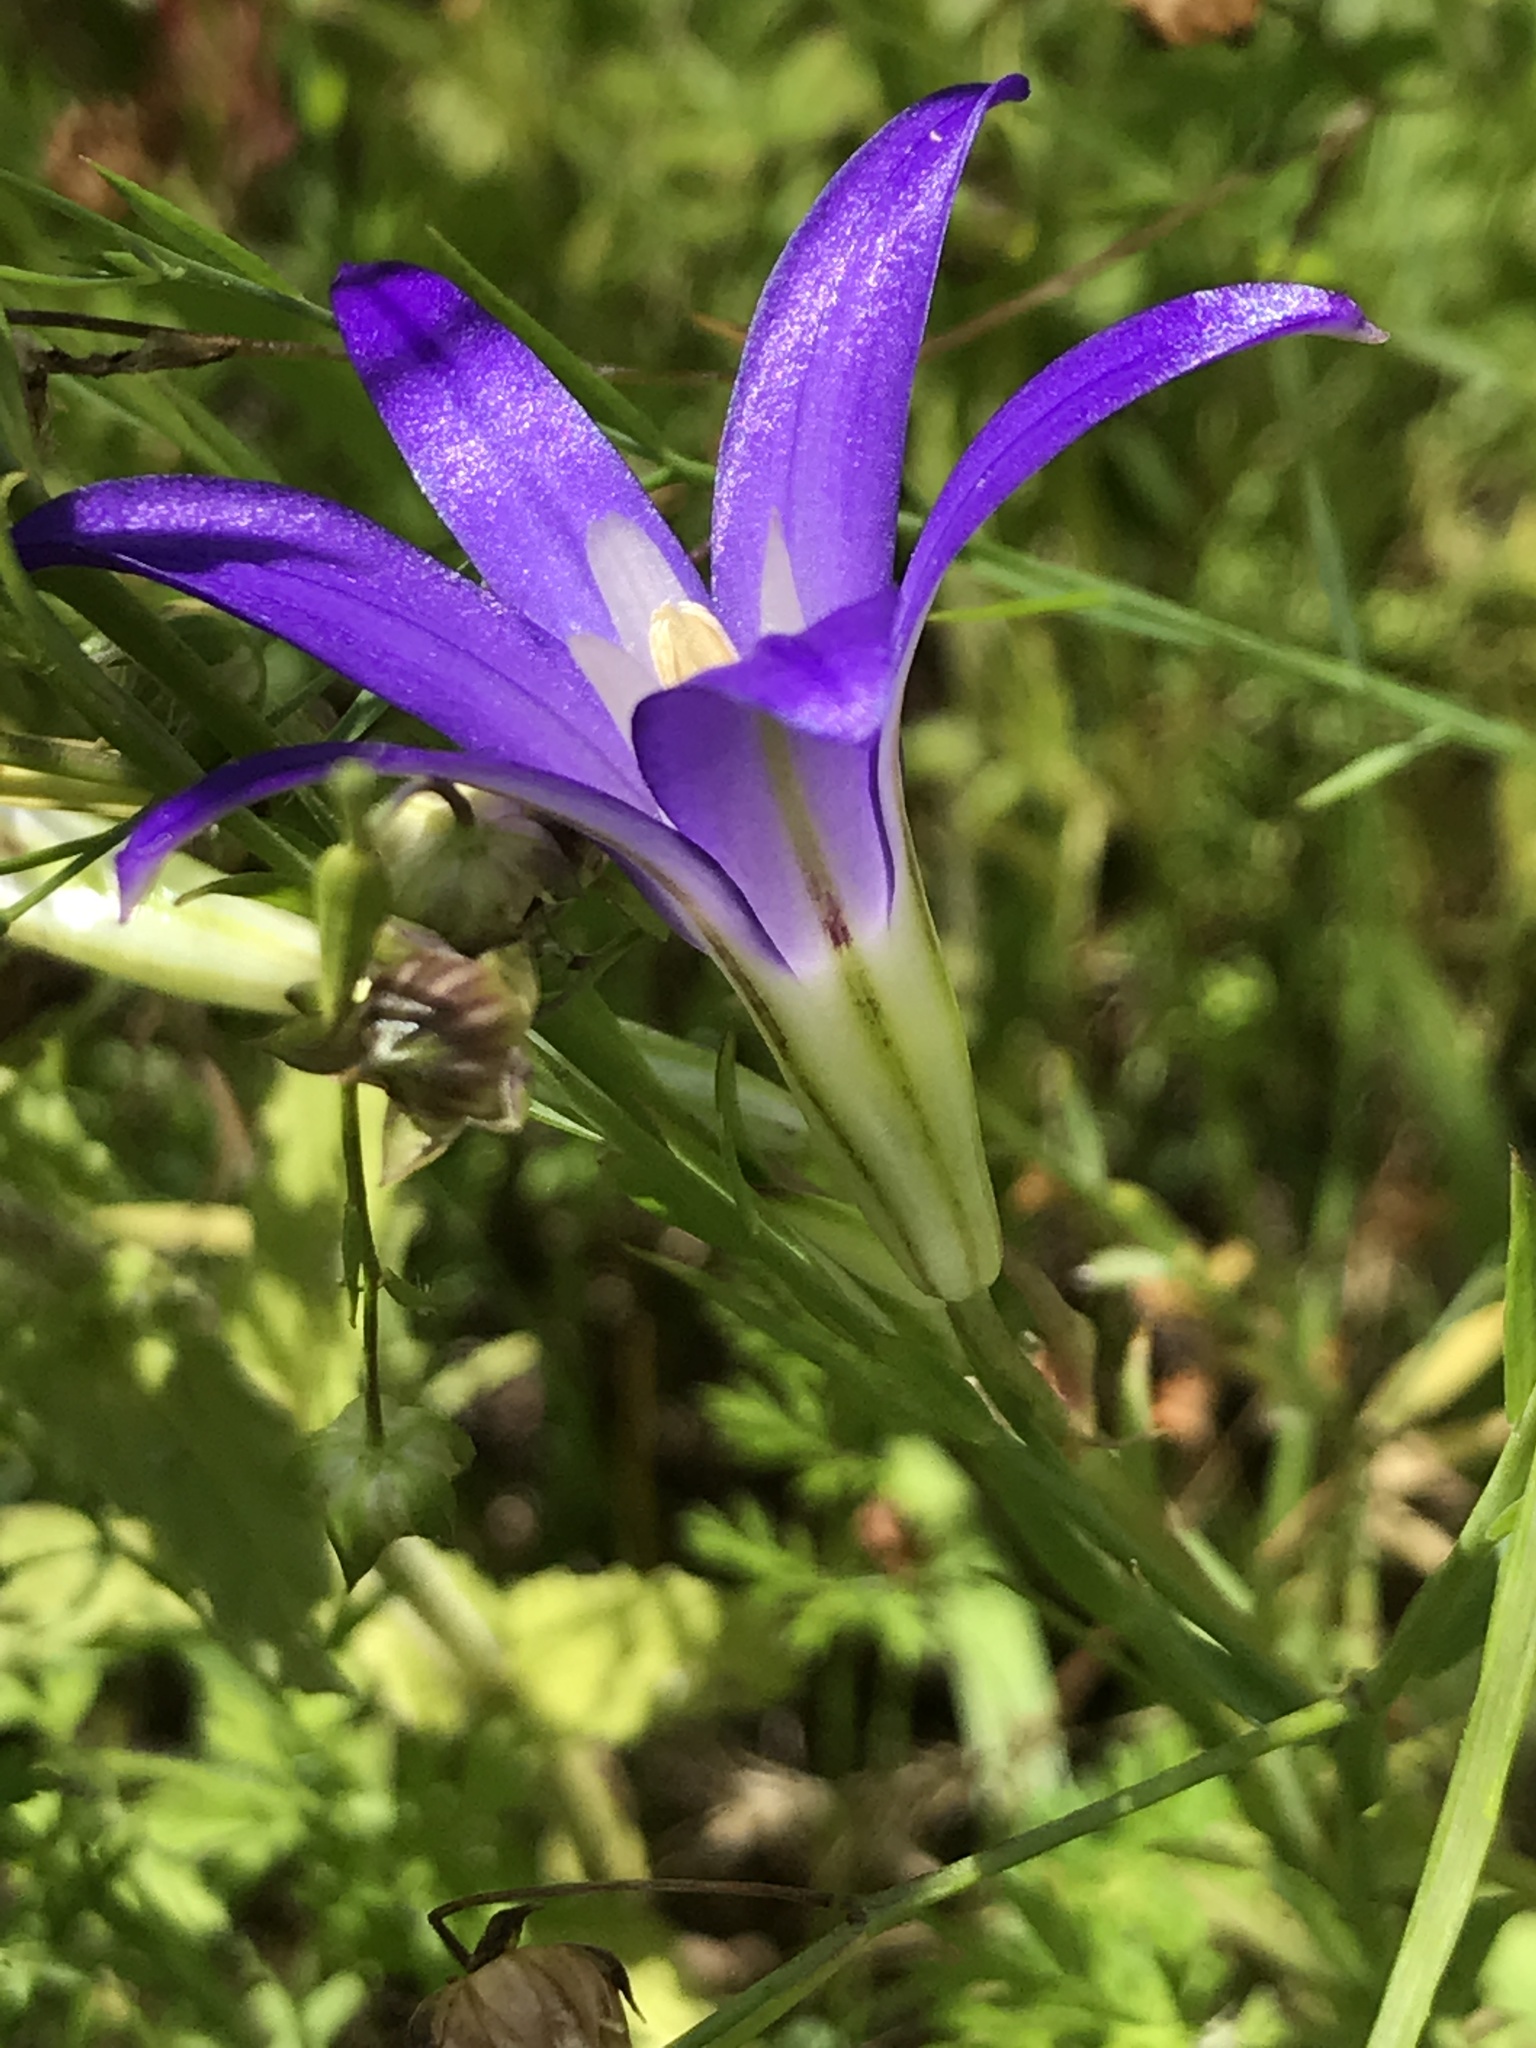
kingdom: Plantae
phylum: Tracheophyta
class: Liliopsida
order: Asparagales
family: Asparagaceae
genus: Brodiaea
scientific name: Brodiaea elegans
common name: Elegant cluster-lily
